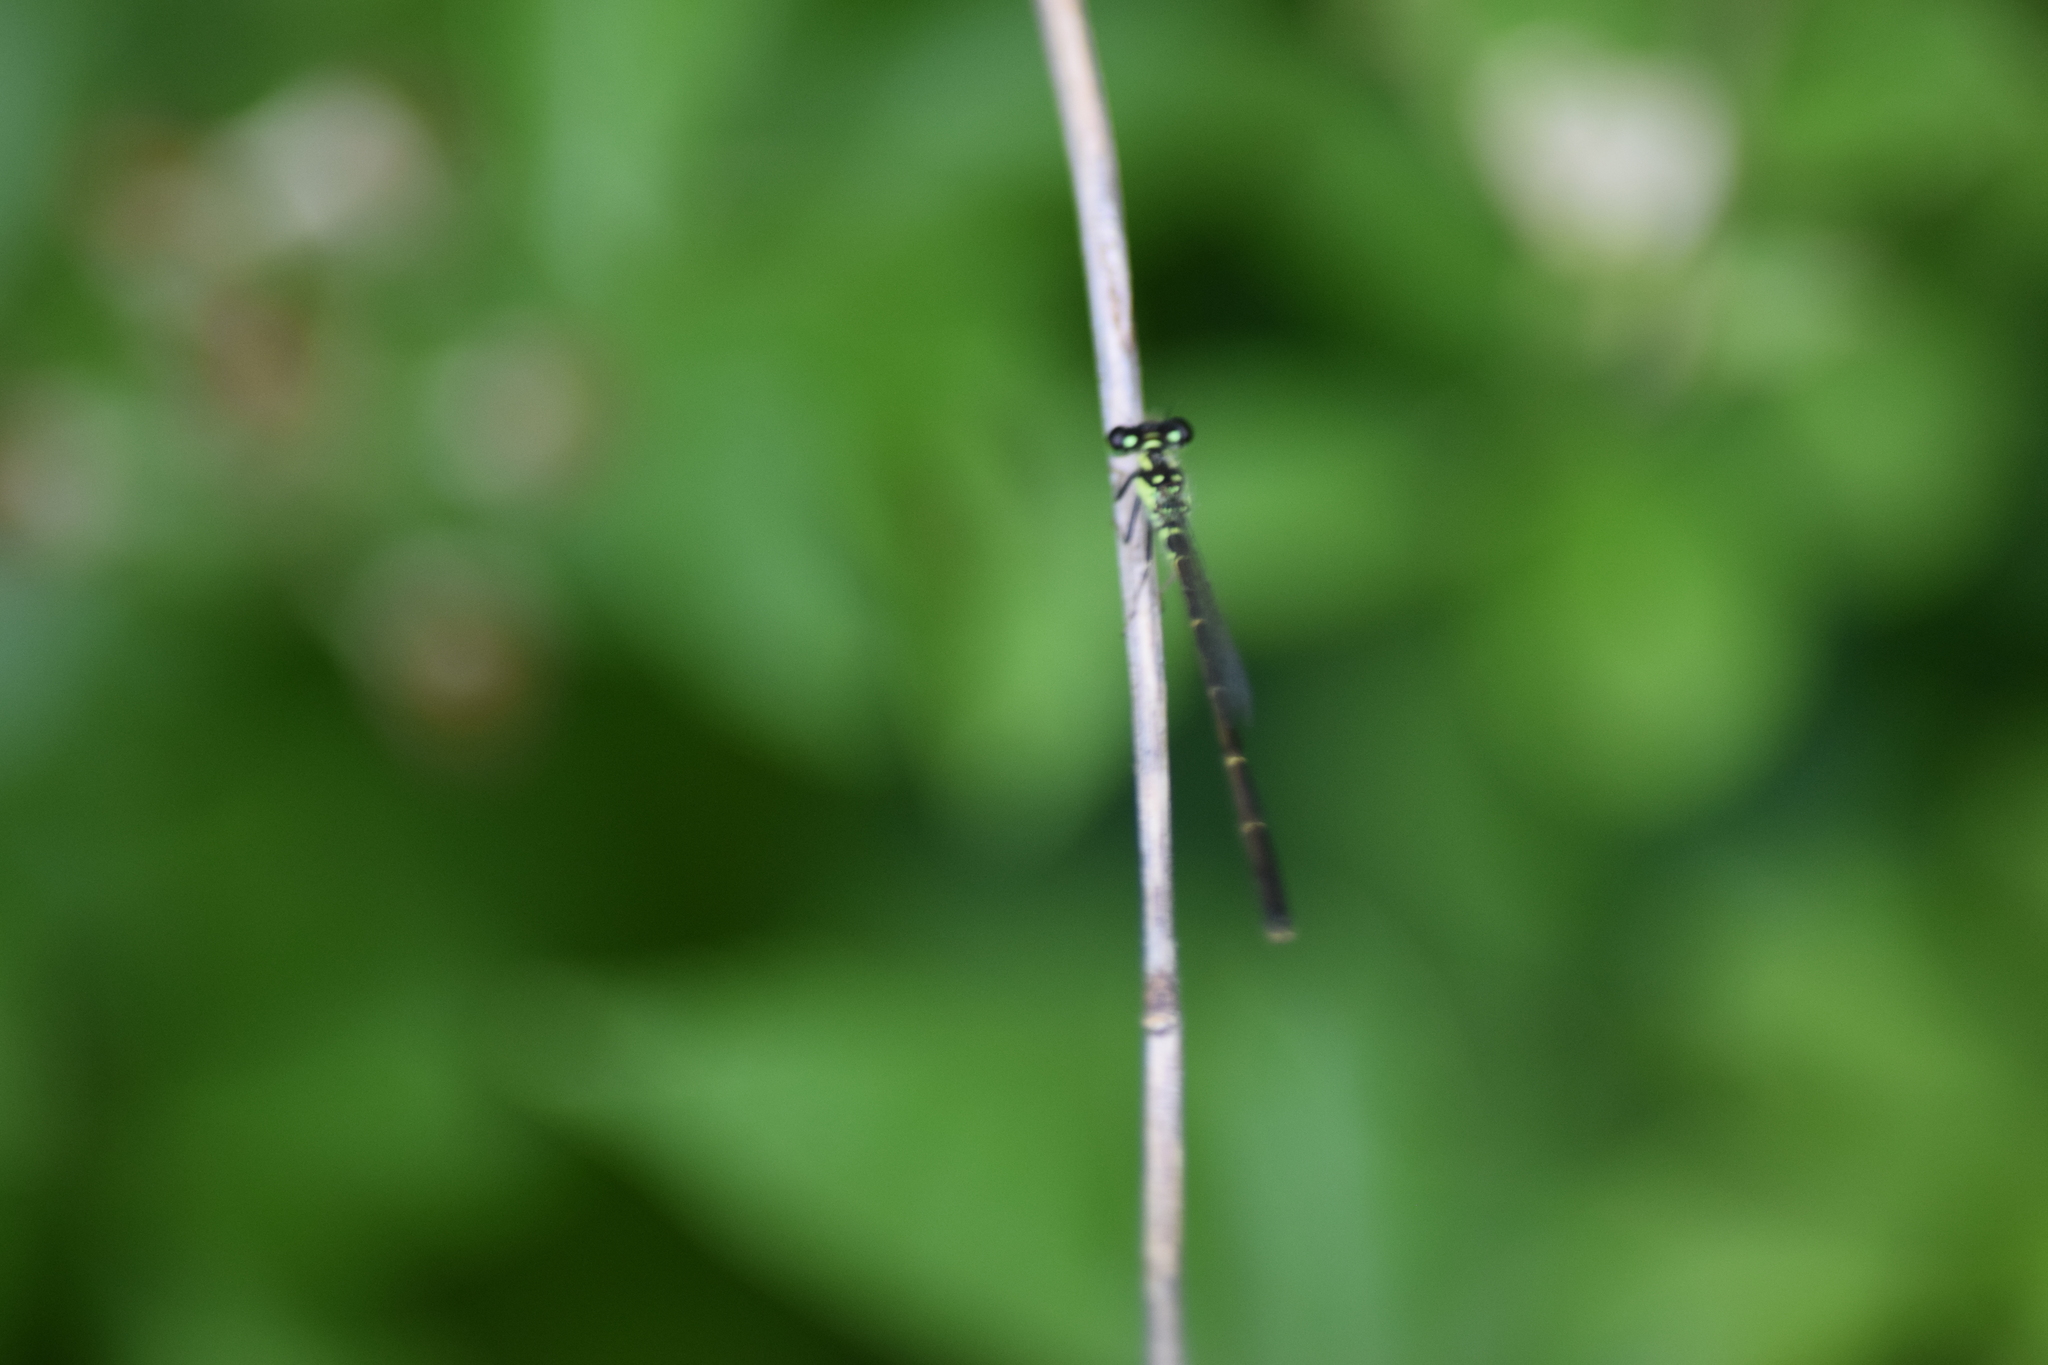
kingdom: Animalia
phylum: Arthropoda
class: Insecta
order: Odonata
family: Coenagrionidae
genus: Ischnura
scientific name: Ischnura posita
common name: Fragile forktail
